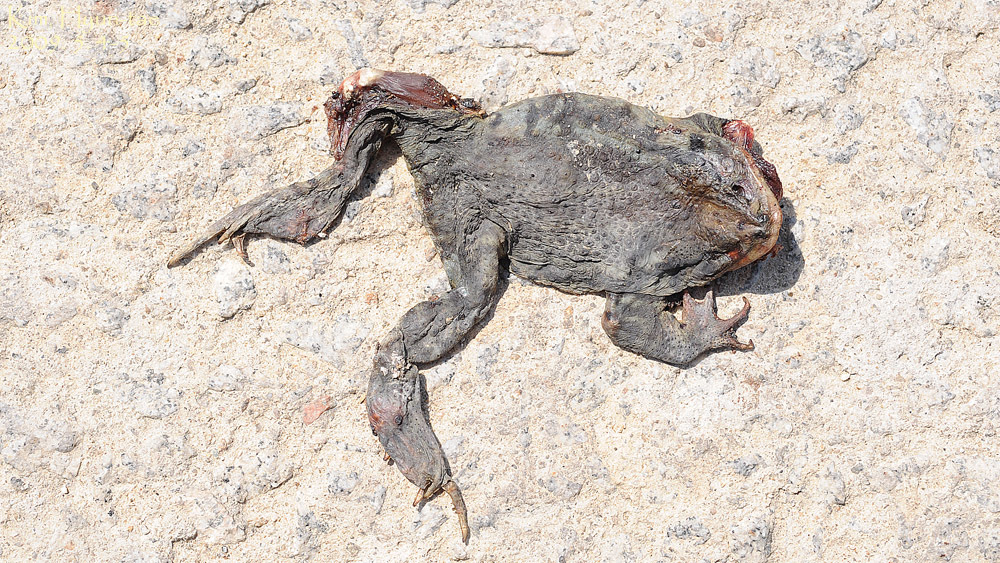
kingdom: Animalia
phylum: Chordata
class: Amphibia
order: Anura
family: Bufonidae
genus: Bufo
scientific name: Bufo gargarizans
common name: Asiatic toad
